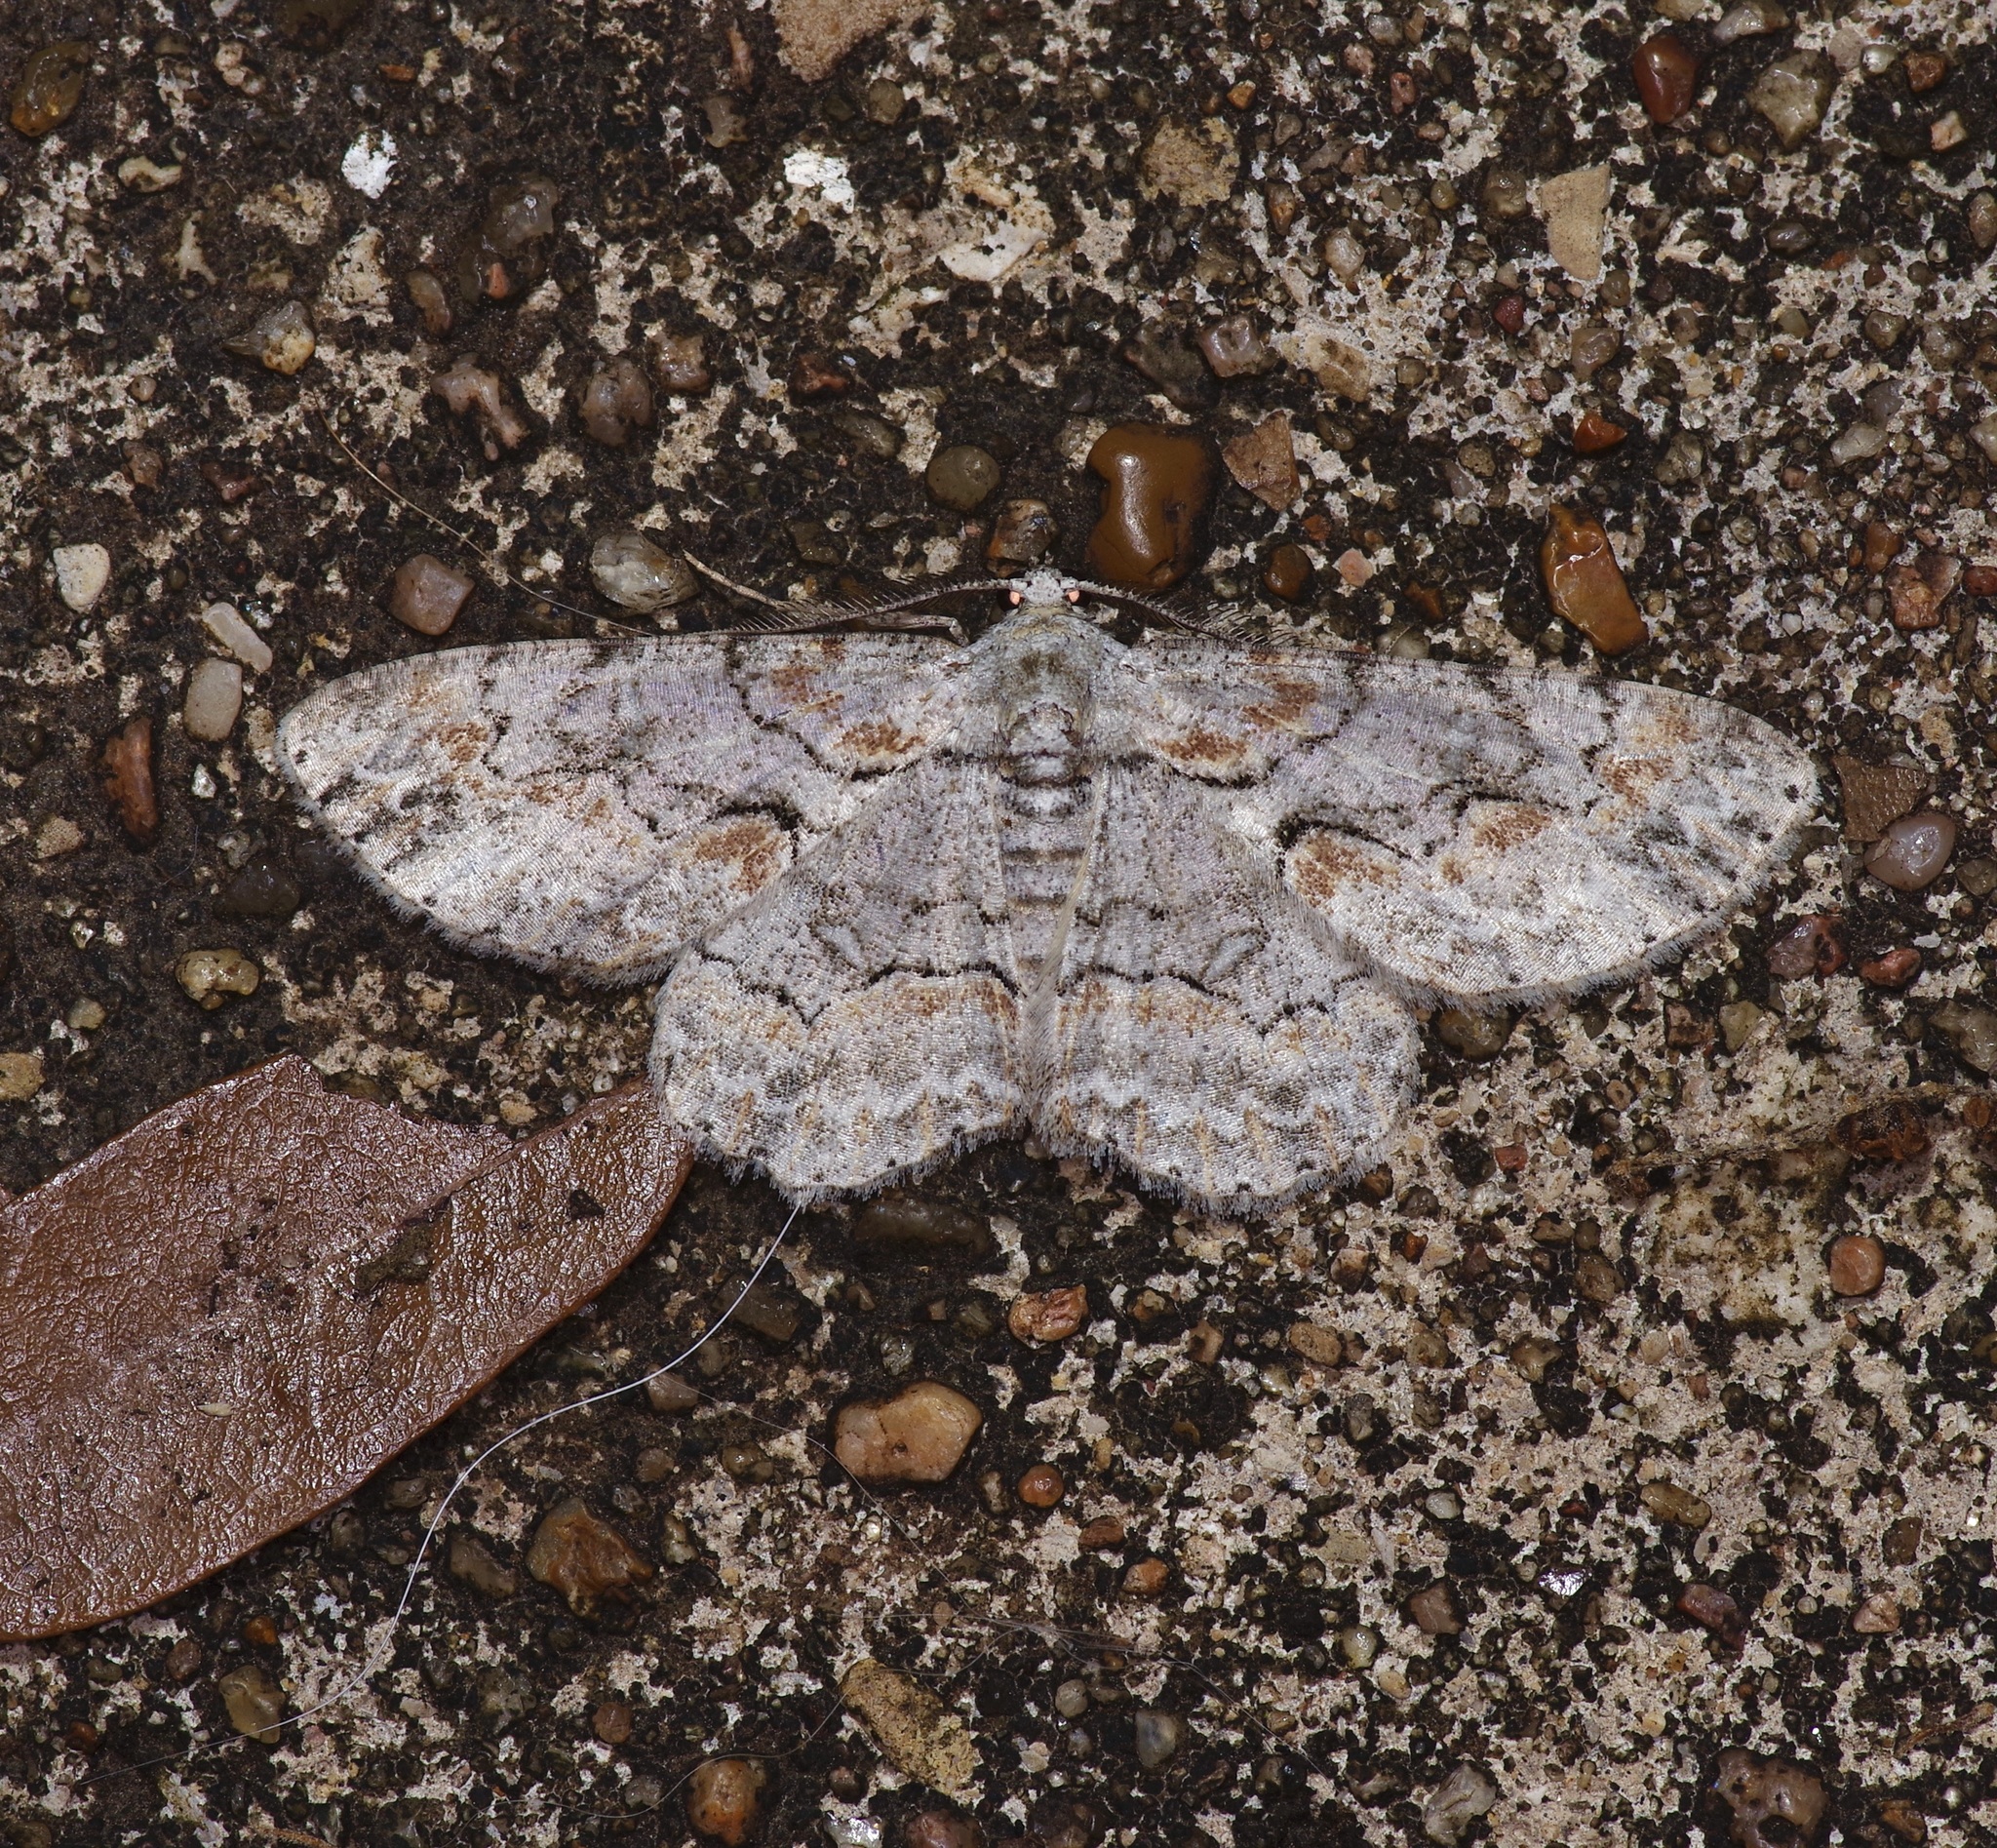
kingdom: Animalia
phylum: Arthropoda
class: Insecta
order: Lepidoptera
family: Geometridae
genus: Iridopsis
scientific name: Iridopsis defectaria
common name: Brown-shaded gray
